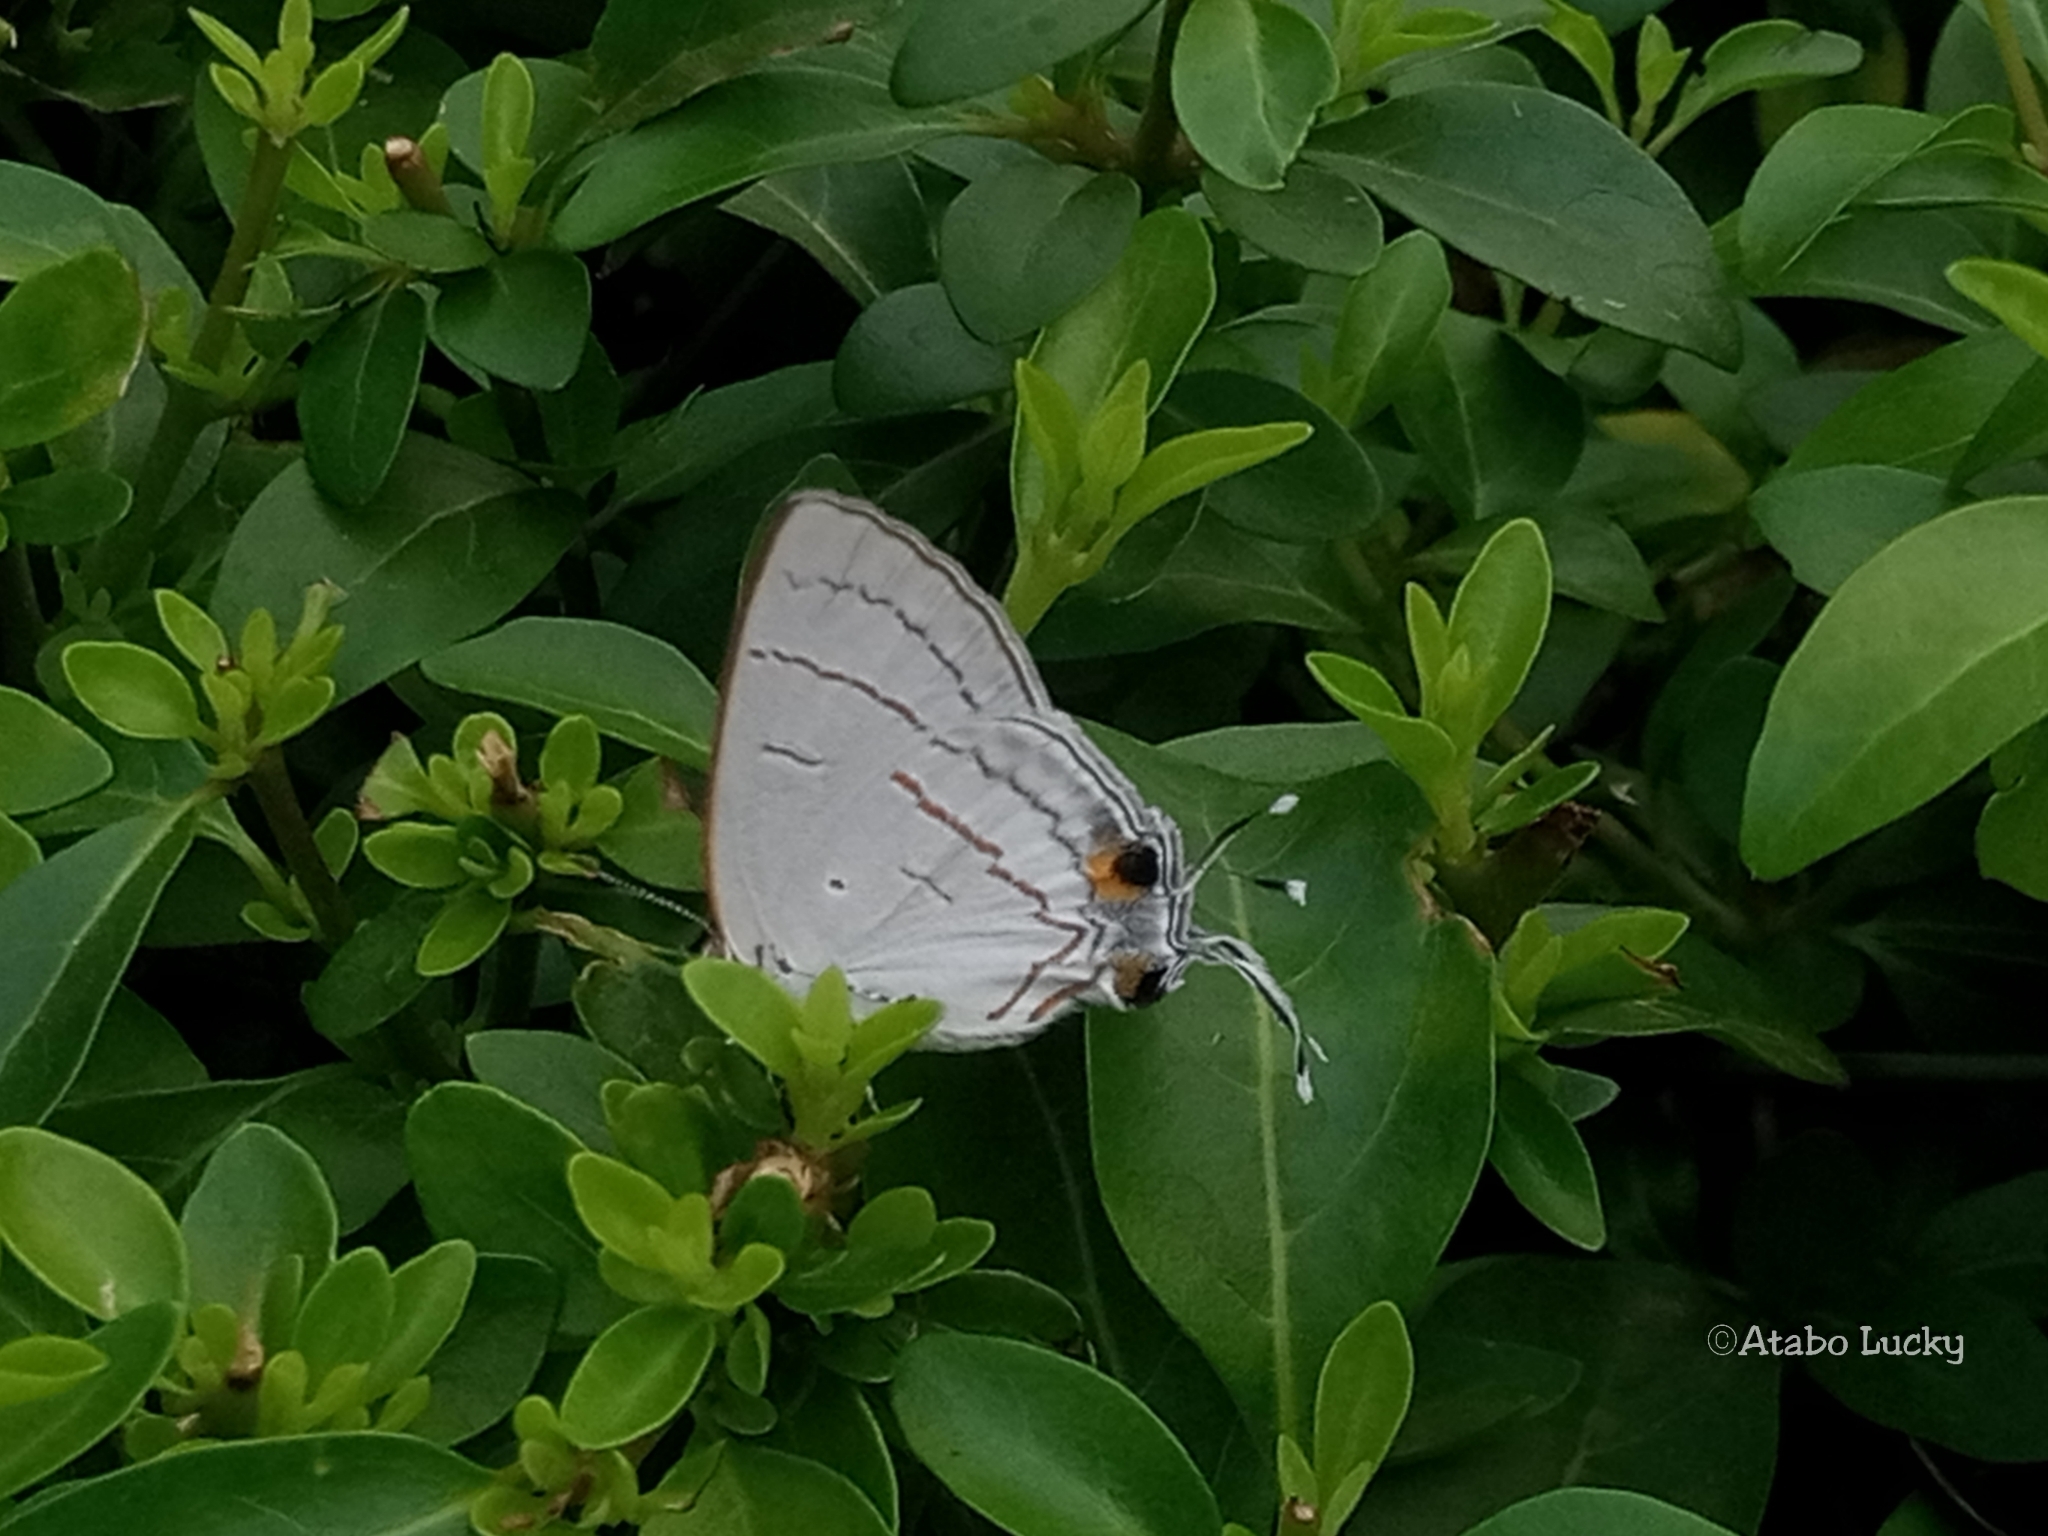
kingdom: Animalia
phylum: Arthropoda
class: Insecta
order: Lepidoptera
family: Lycaenidae
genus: Hypolycaena
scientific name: Hypolycaena philippus
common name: Common hairstreak
